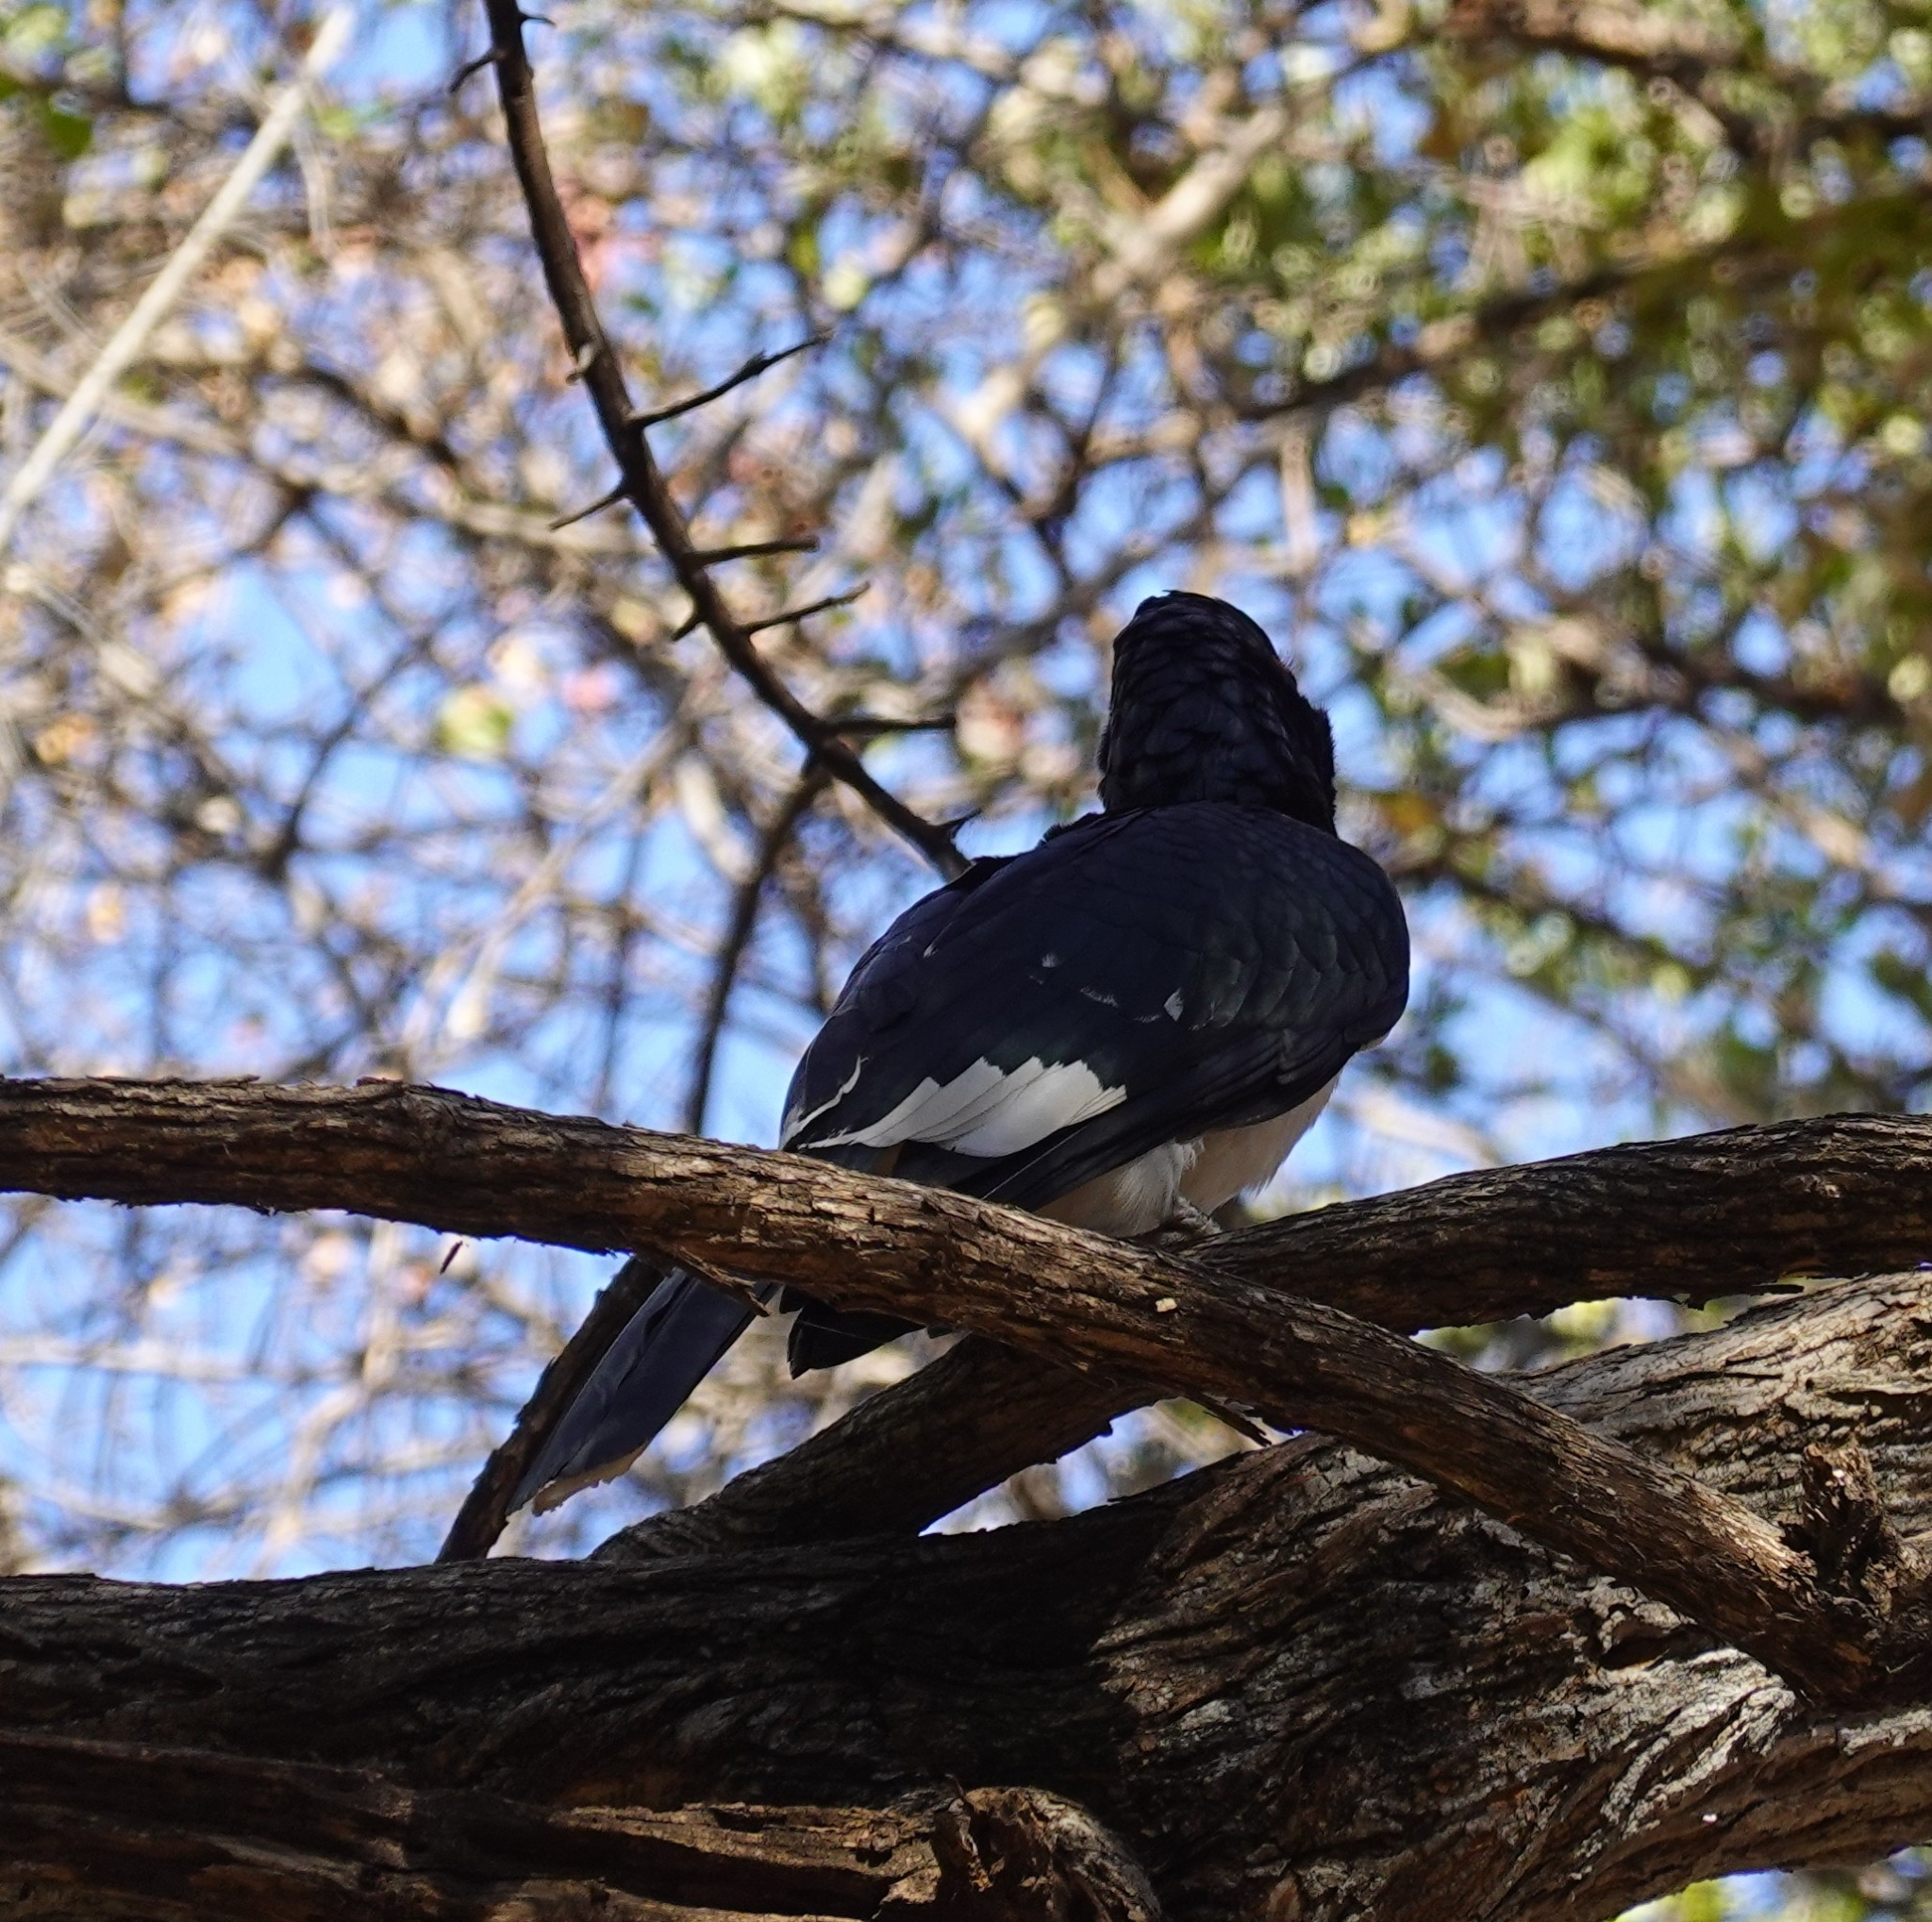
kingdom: Animalia
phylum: Chordata
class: Aves
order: Bucerotiformes
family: Bucerotidae
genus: Bycanistes
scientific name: Bycanistes bucinator
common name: Trumpeter hornbill
